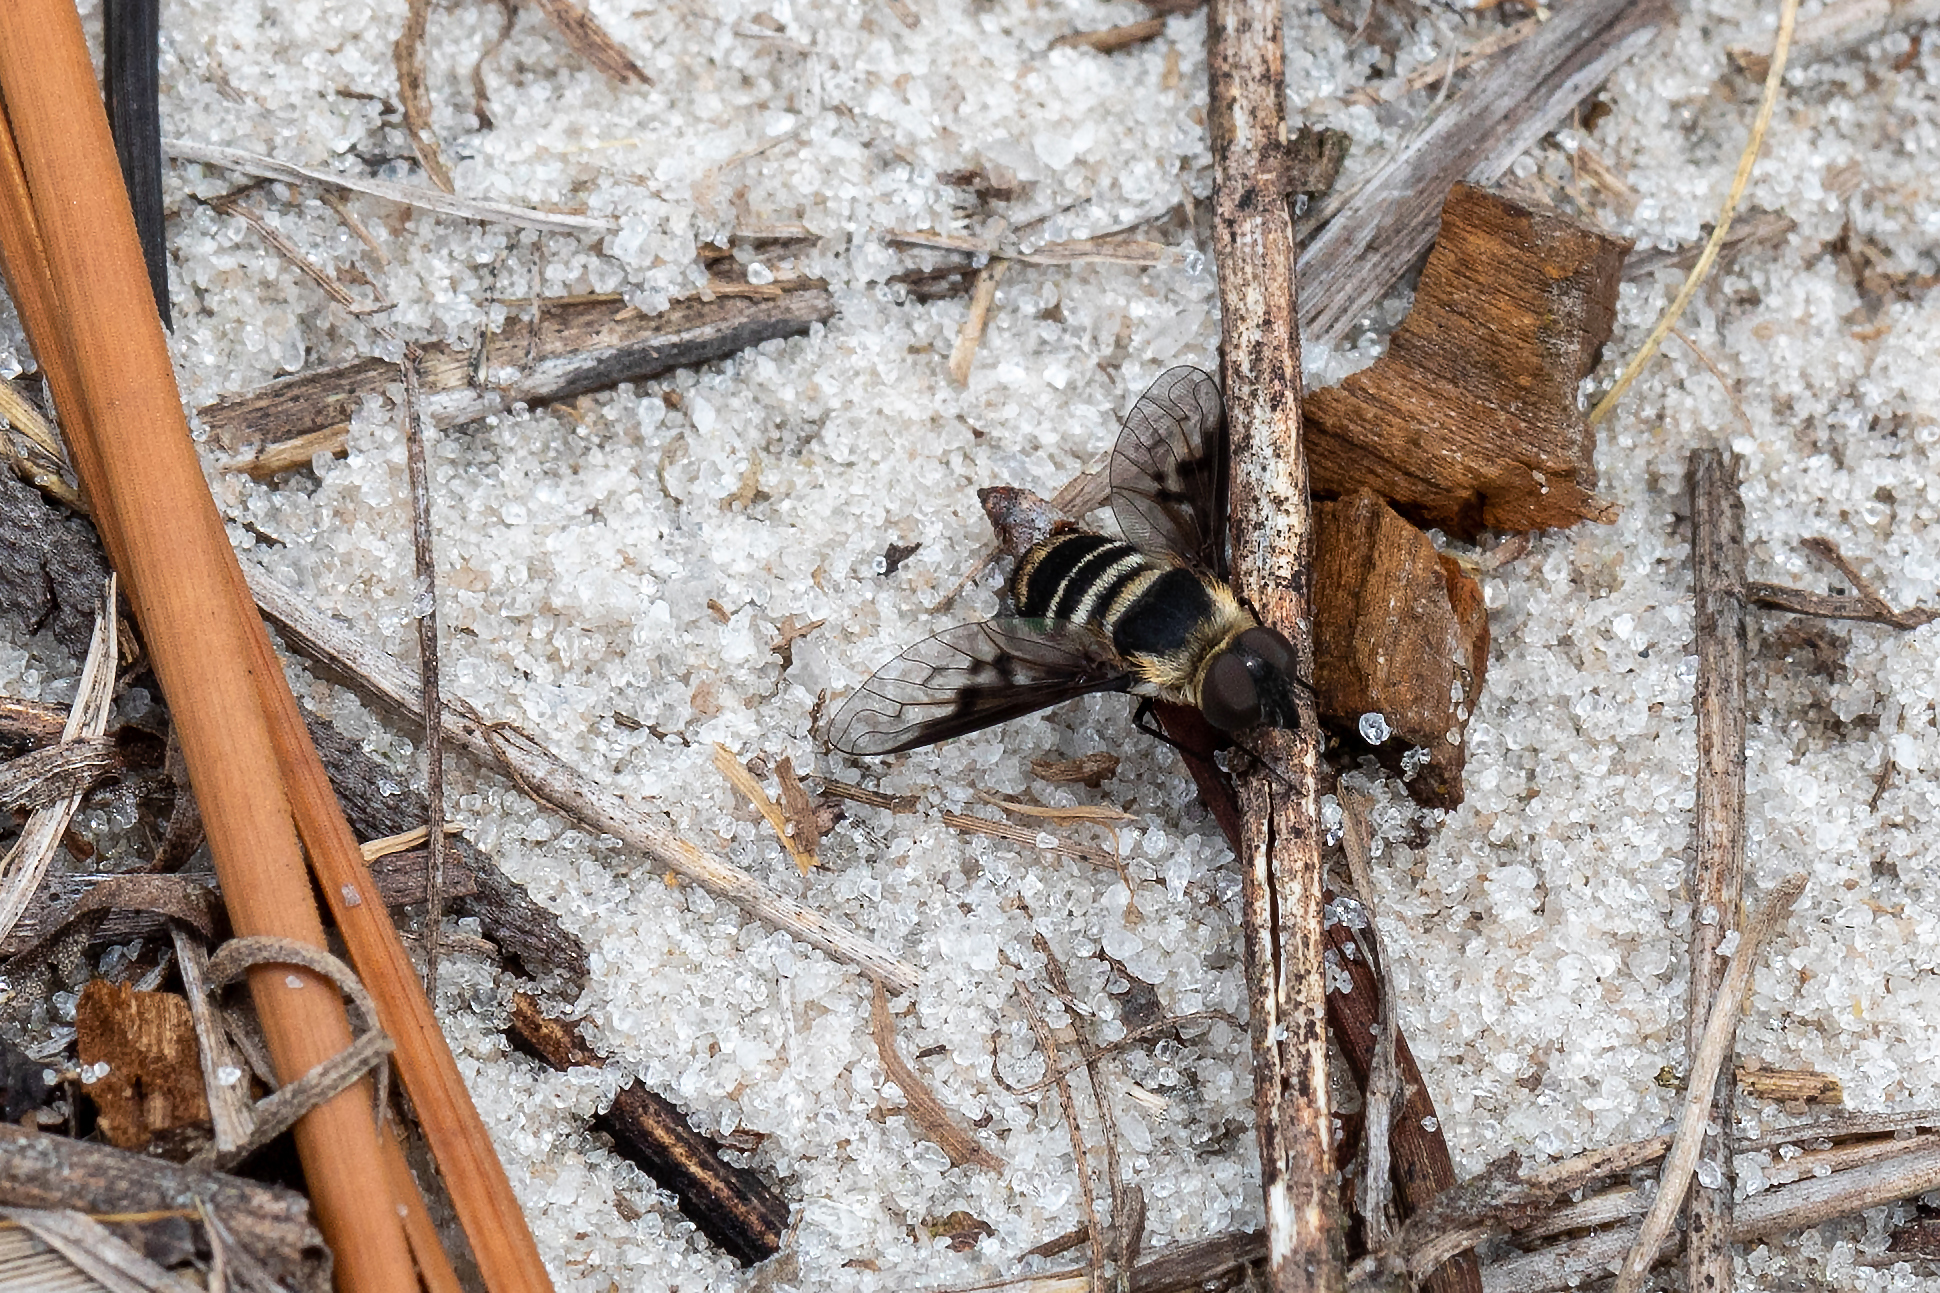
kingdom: Animalia
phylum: Arthropoda
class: Insecta
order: Diptera
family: Bombyliidae
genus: Chrysanthrax
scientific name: Chrysanthrax dispar
